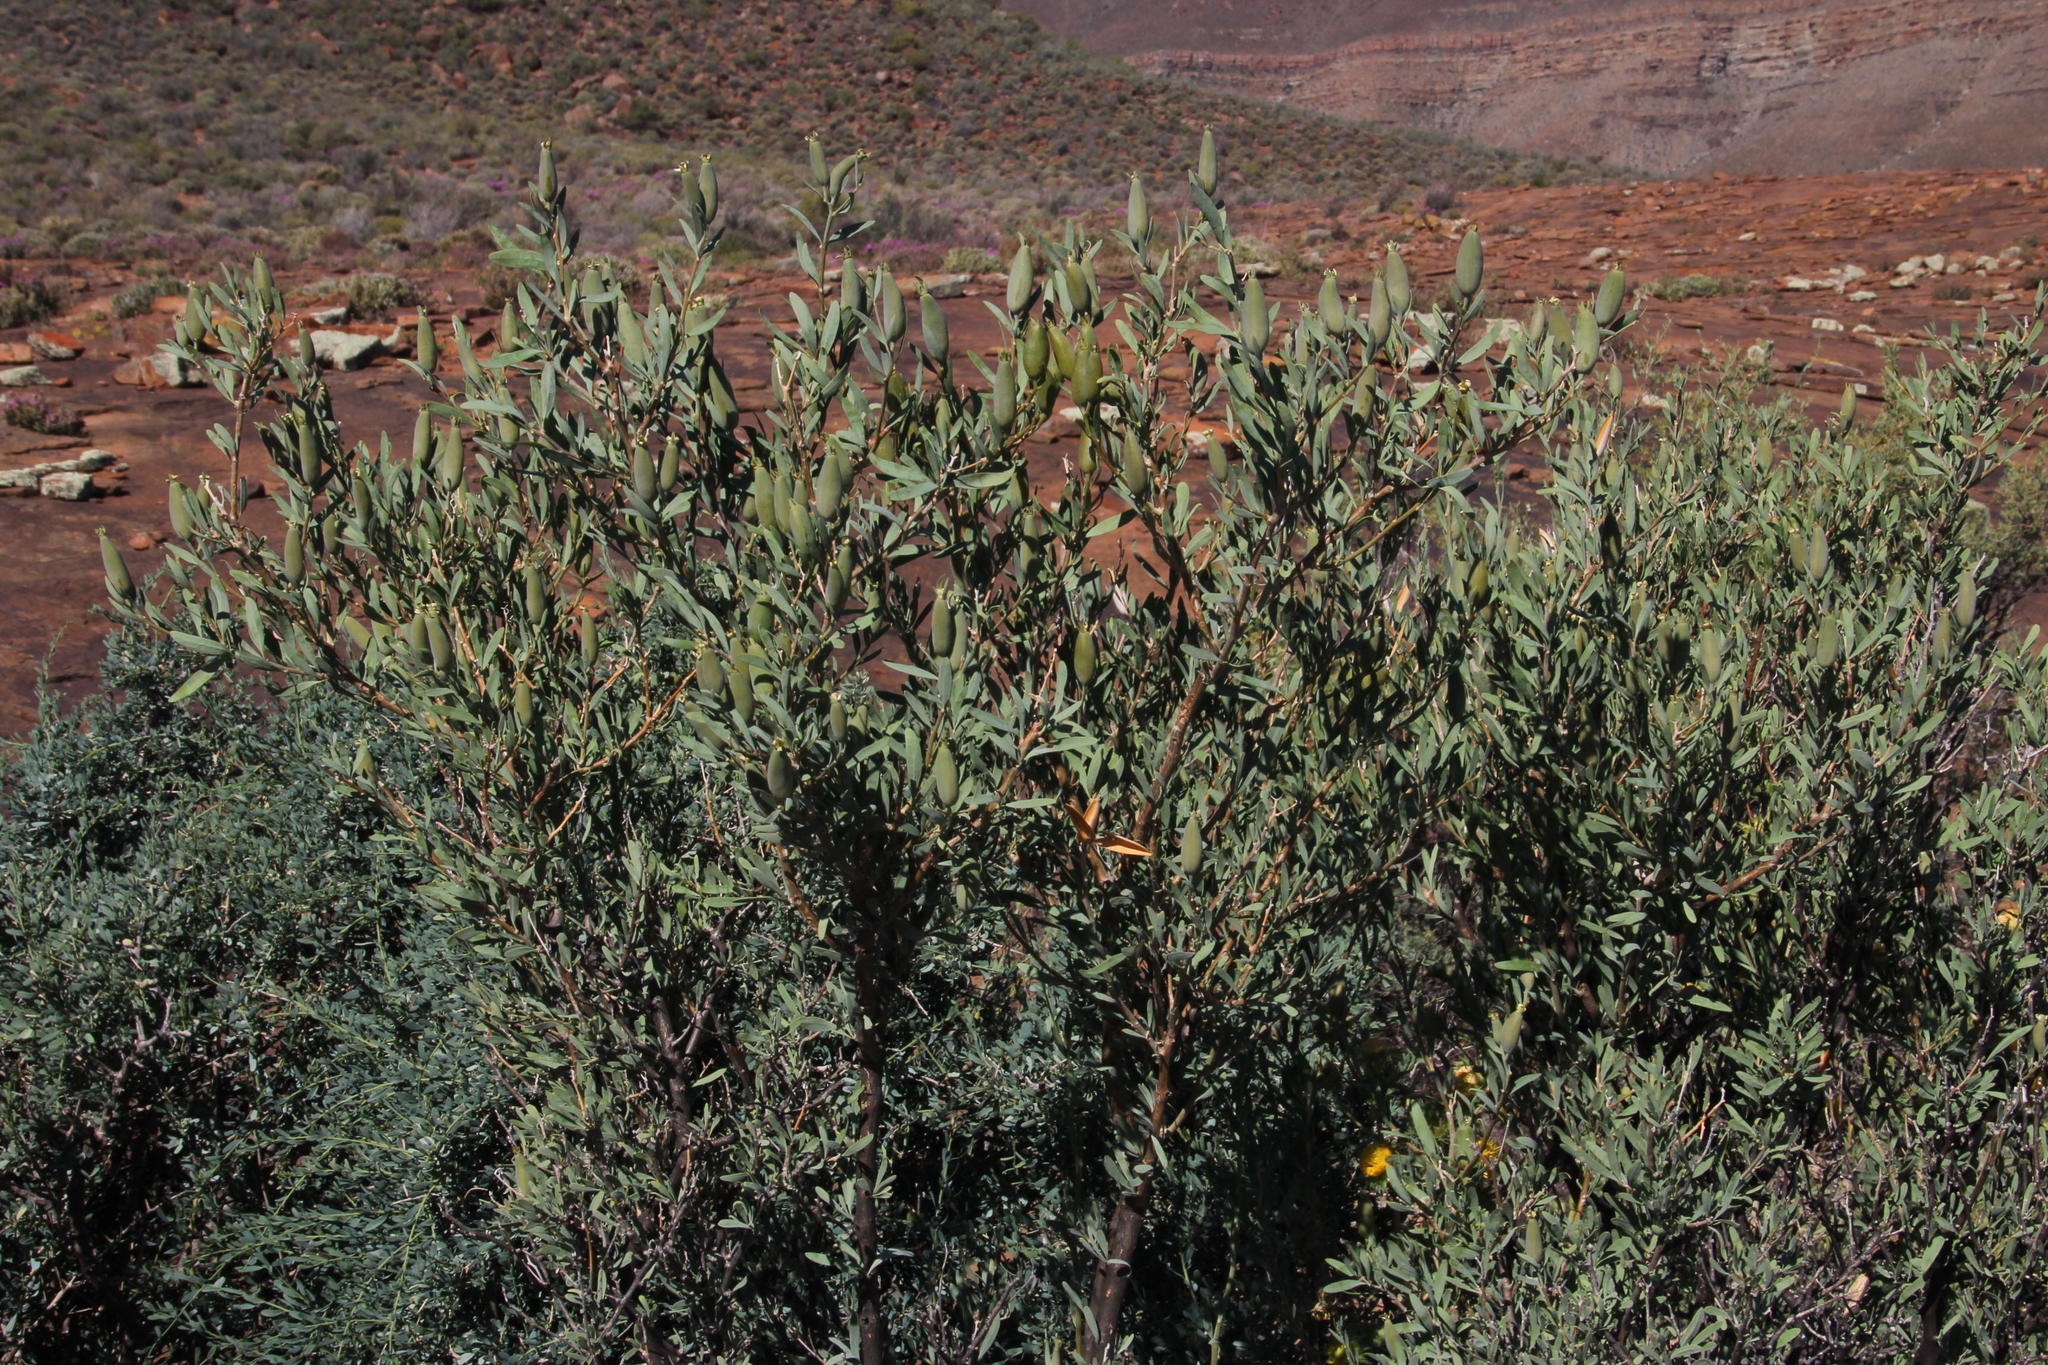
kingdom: Plantae
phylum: Tracheophyta
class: Magnoliopsida
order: Solanales
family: Montiniaceae
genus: Montinia
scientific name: Montinia caryophyllacea
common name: Wild clove-bush
